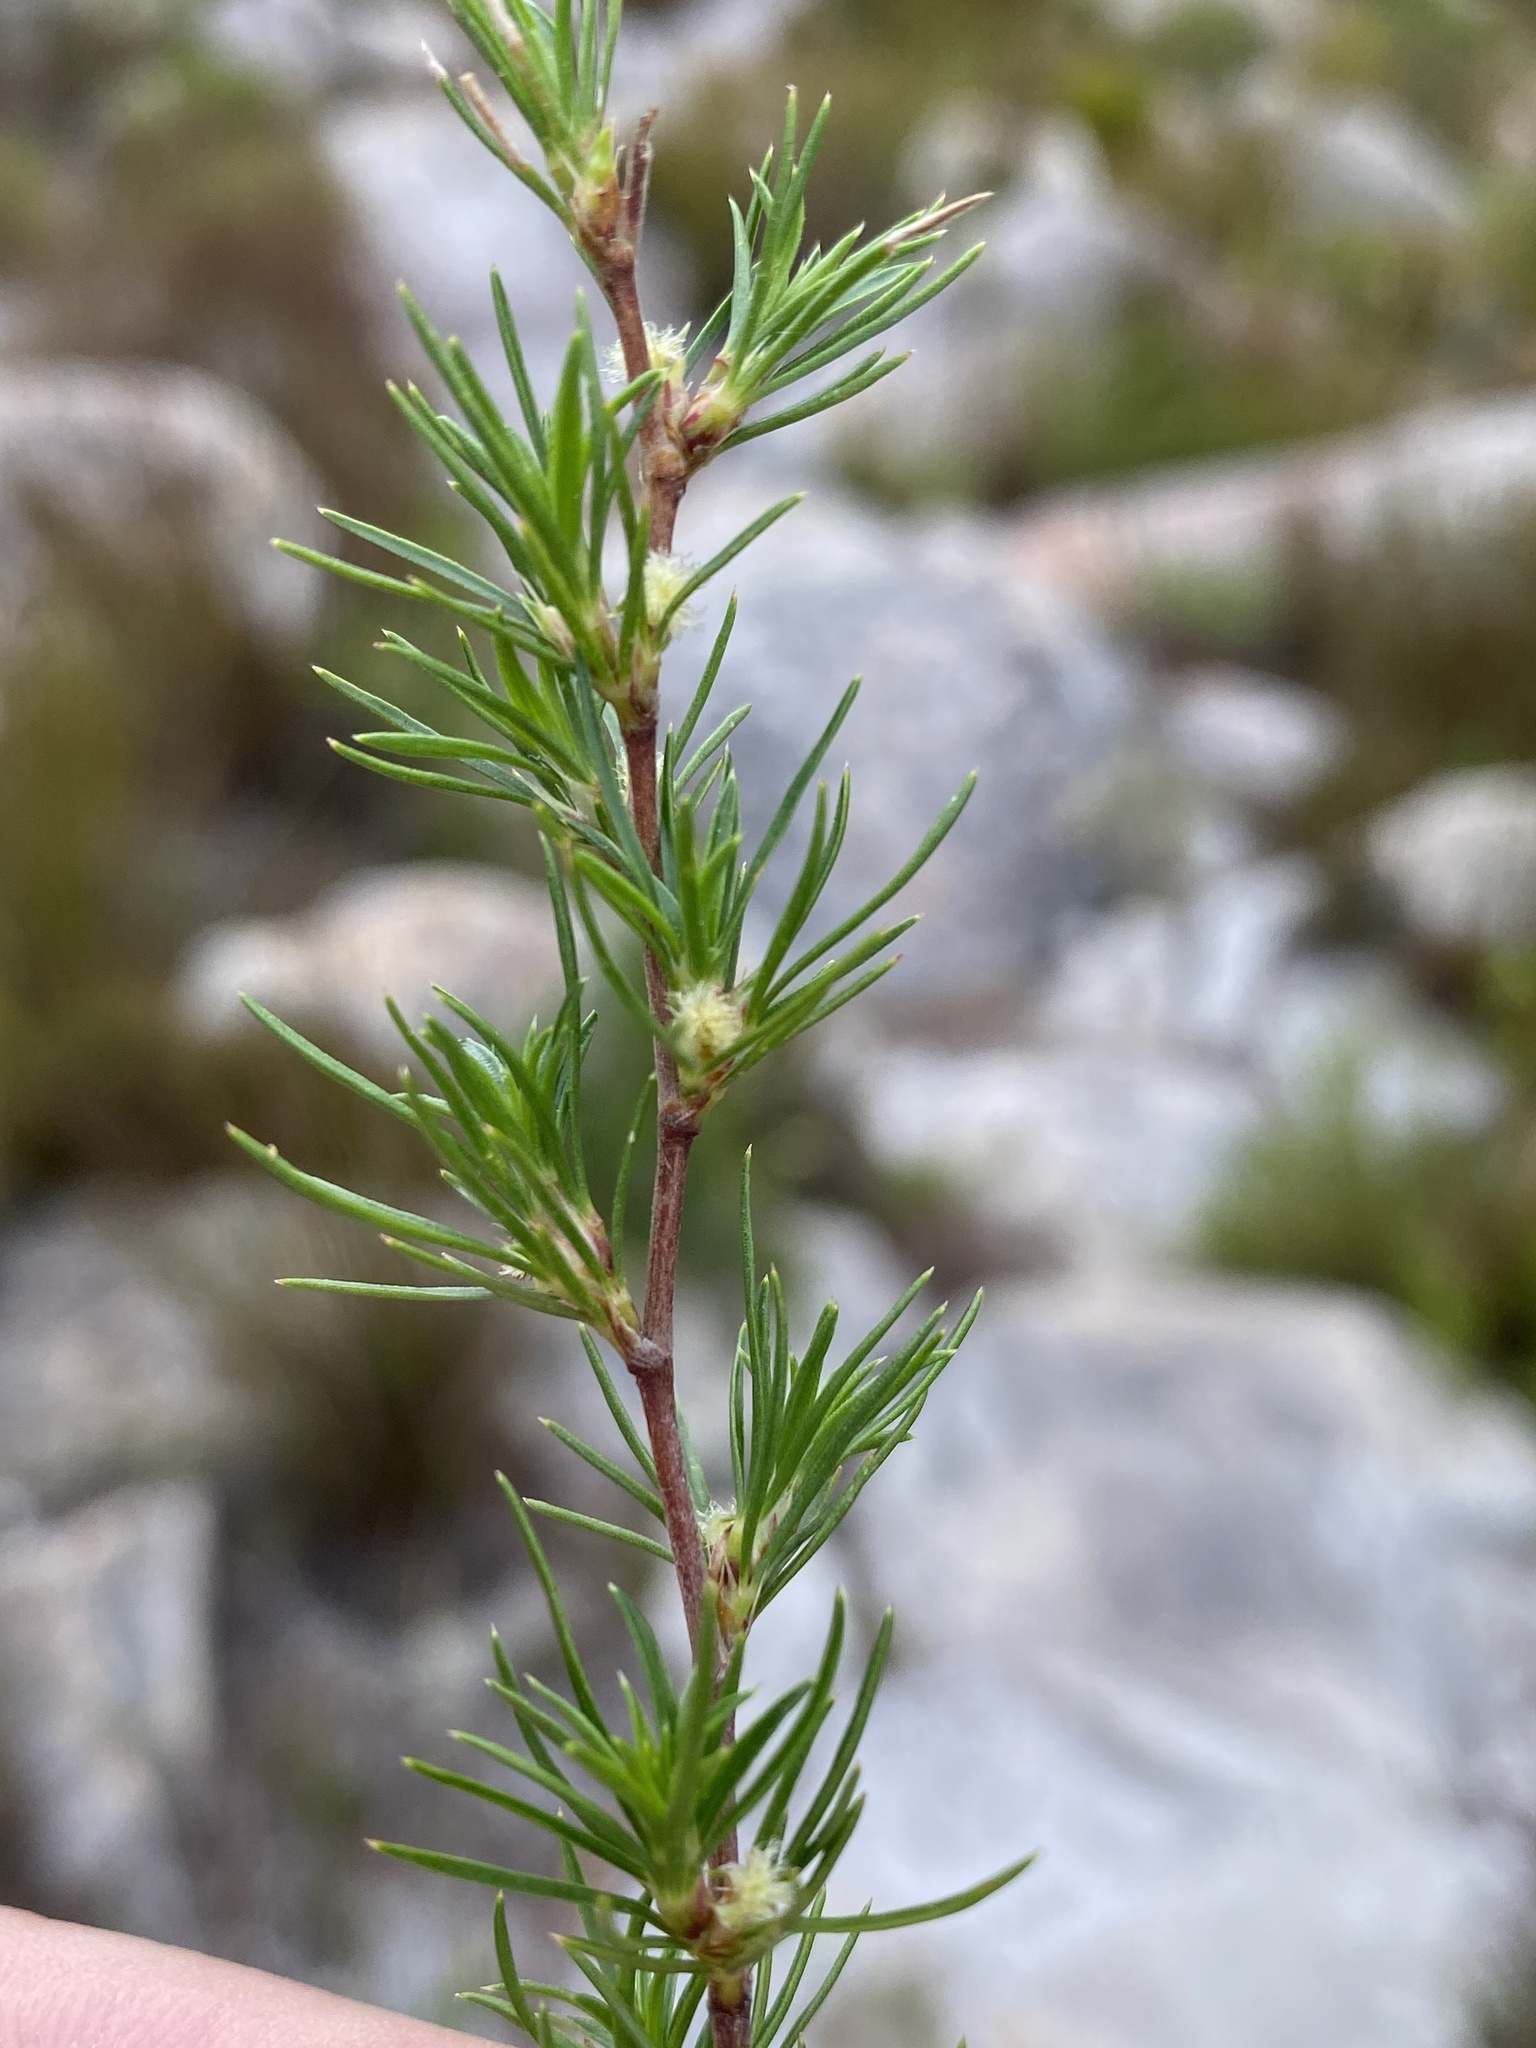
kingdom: Plantae
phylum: Tracheophyta
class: Magnoliopsida
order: Rosales
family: Rosaceae
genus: Cliffortia
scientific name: Cliffortia atrata
